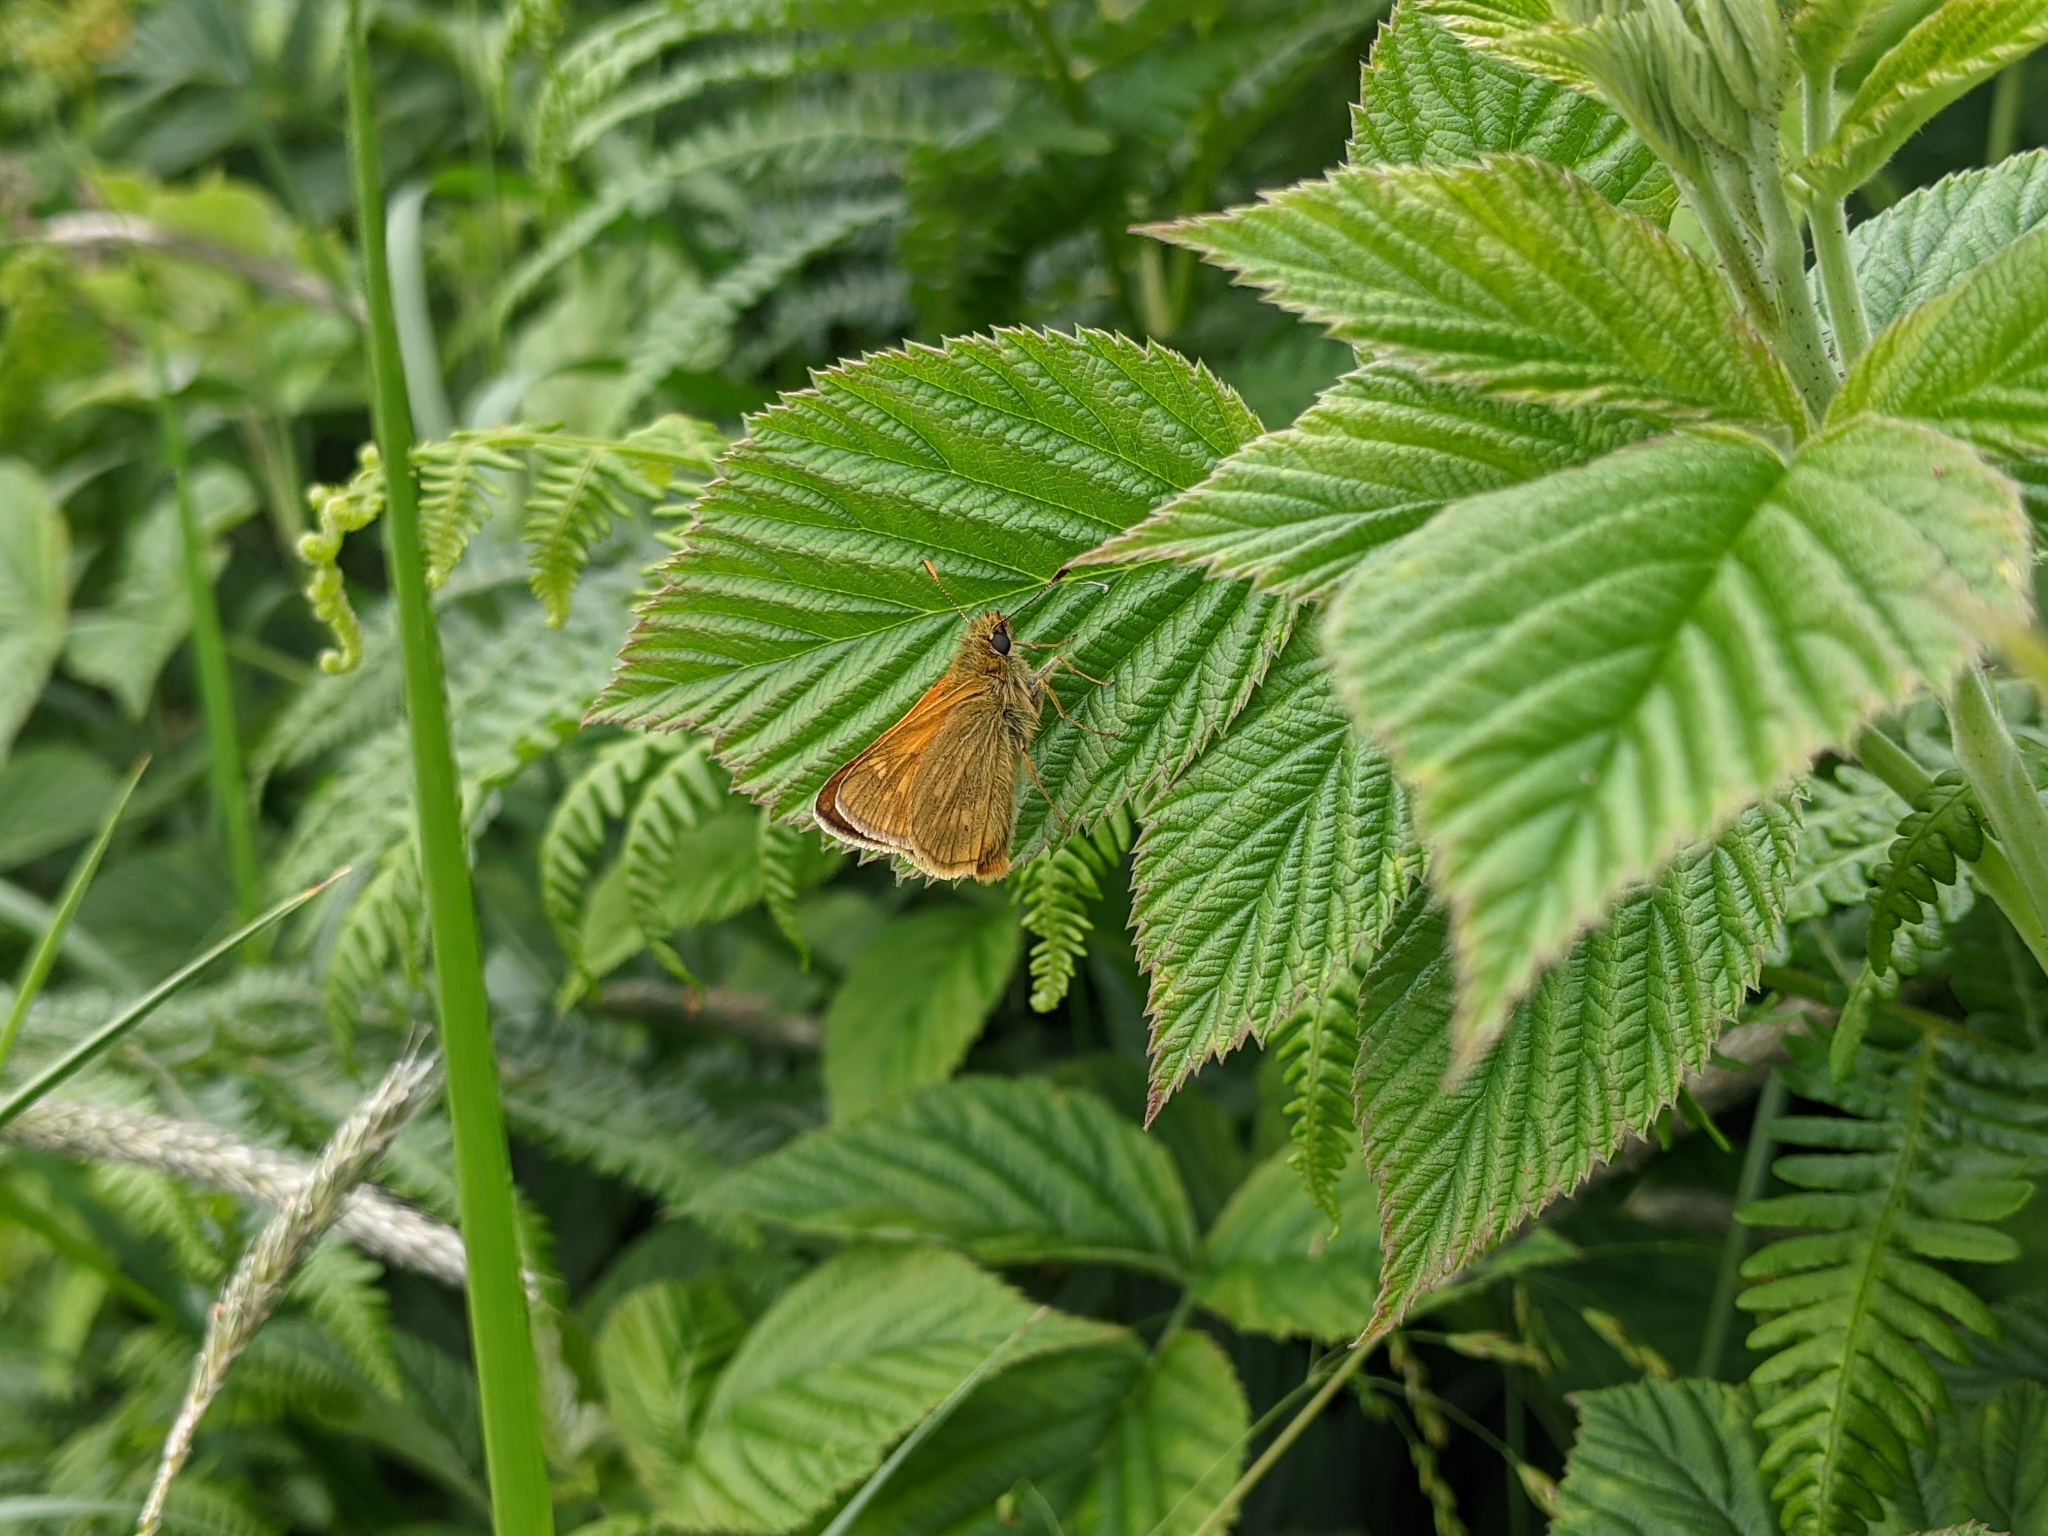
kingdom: Animalia
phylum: Arthropoda
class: Insecta
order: Lepidoptera
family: Hesperiidae
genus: Ochlodes
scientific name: Ochlodes venata
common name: Large skipper
